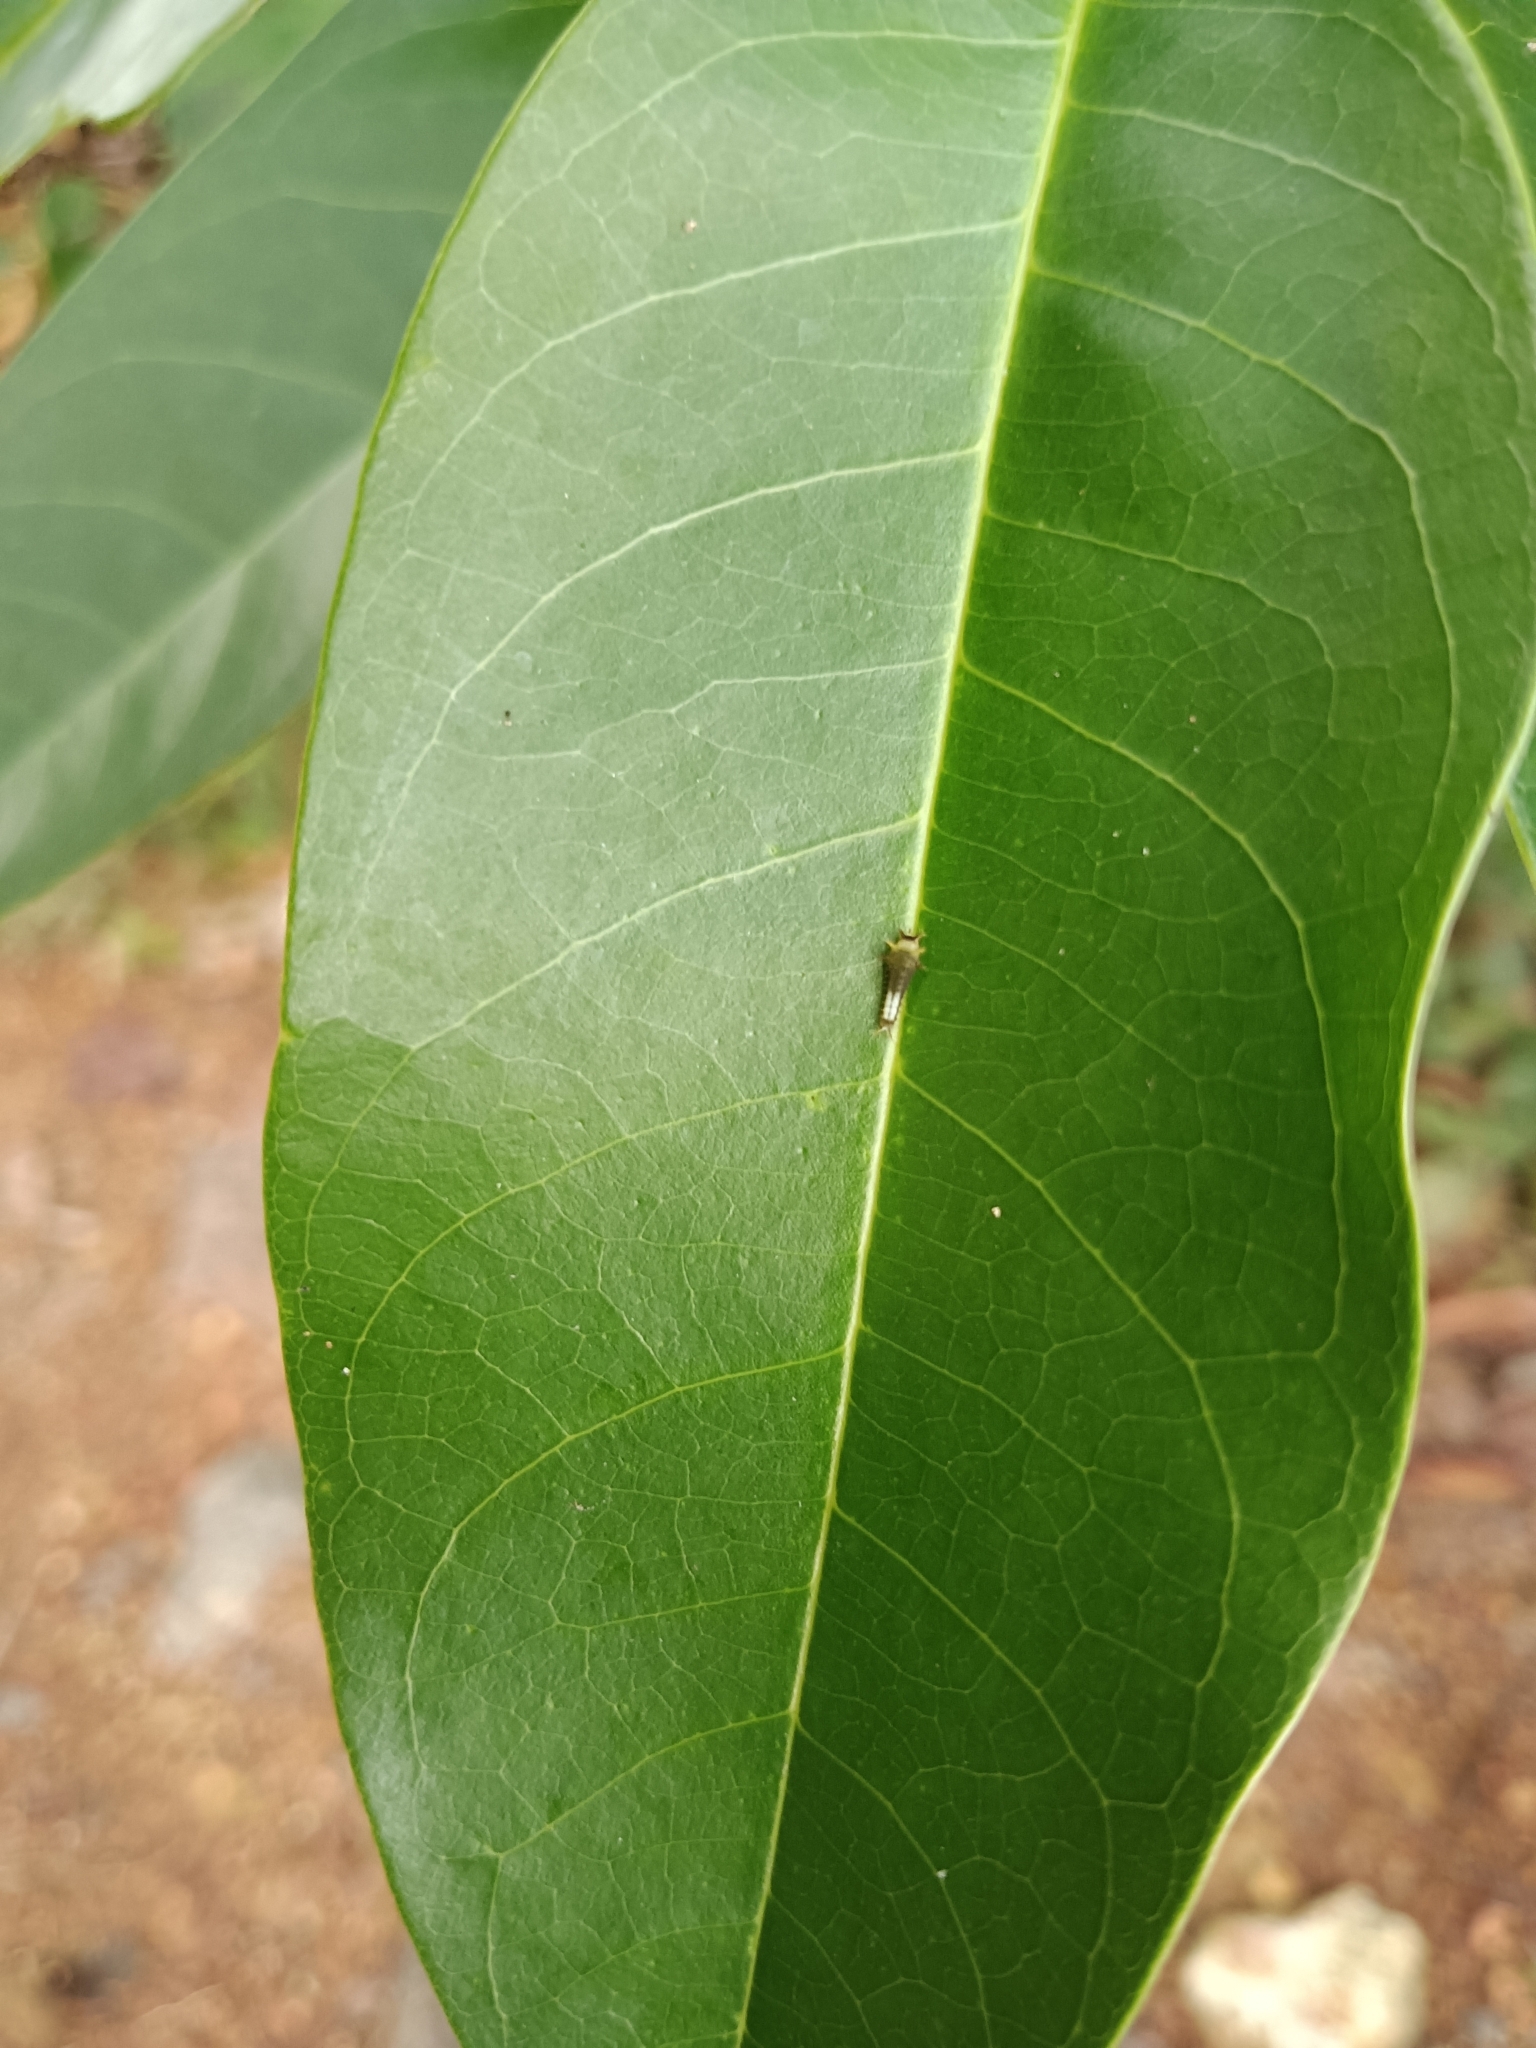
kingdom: Animalia
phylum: Arthropoda
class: Insecta
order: Lepidoptera
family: Papilionidae
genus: Graphium
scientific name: Graphium agamemnon
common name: Tailed jay
